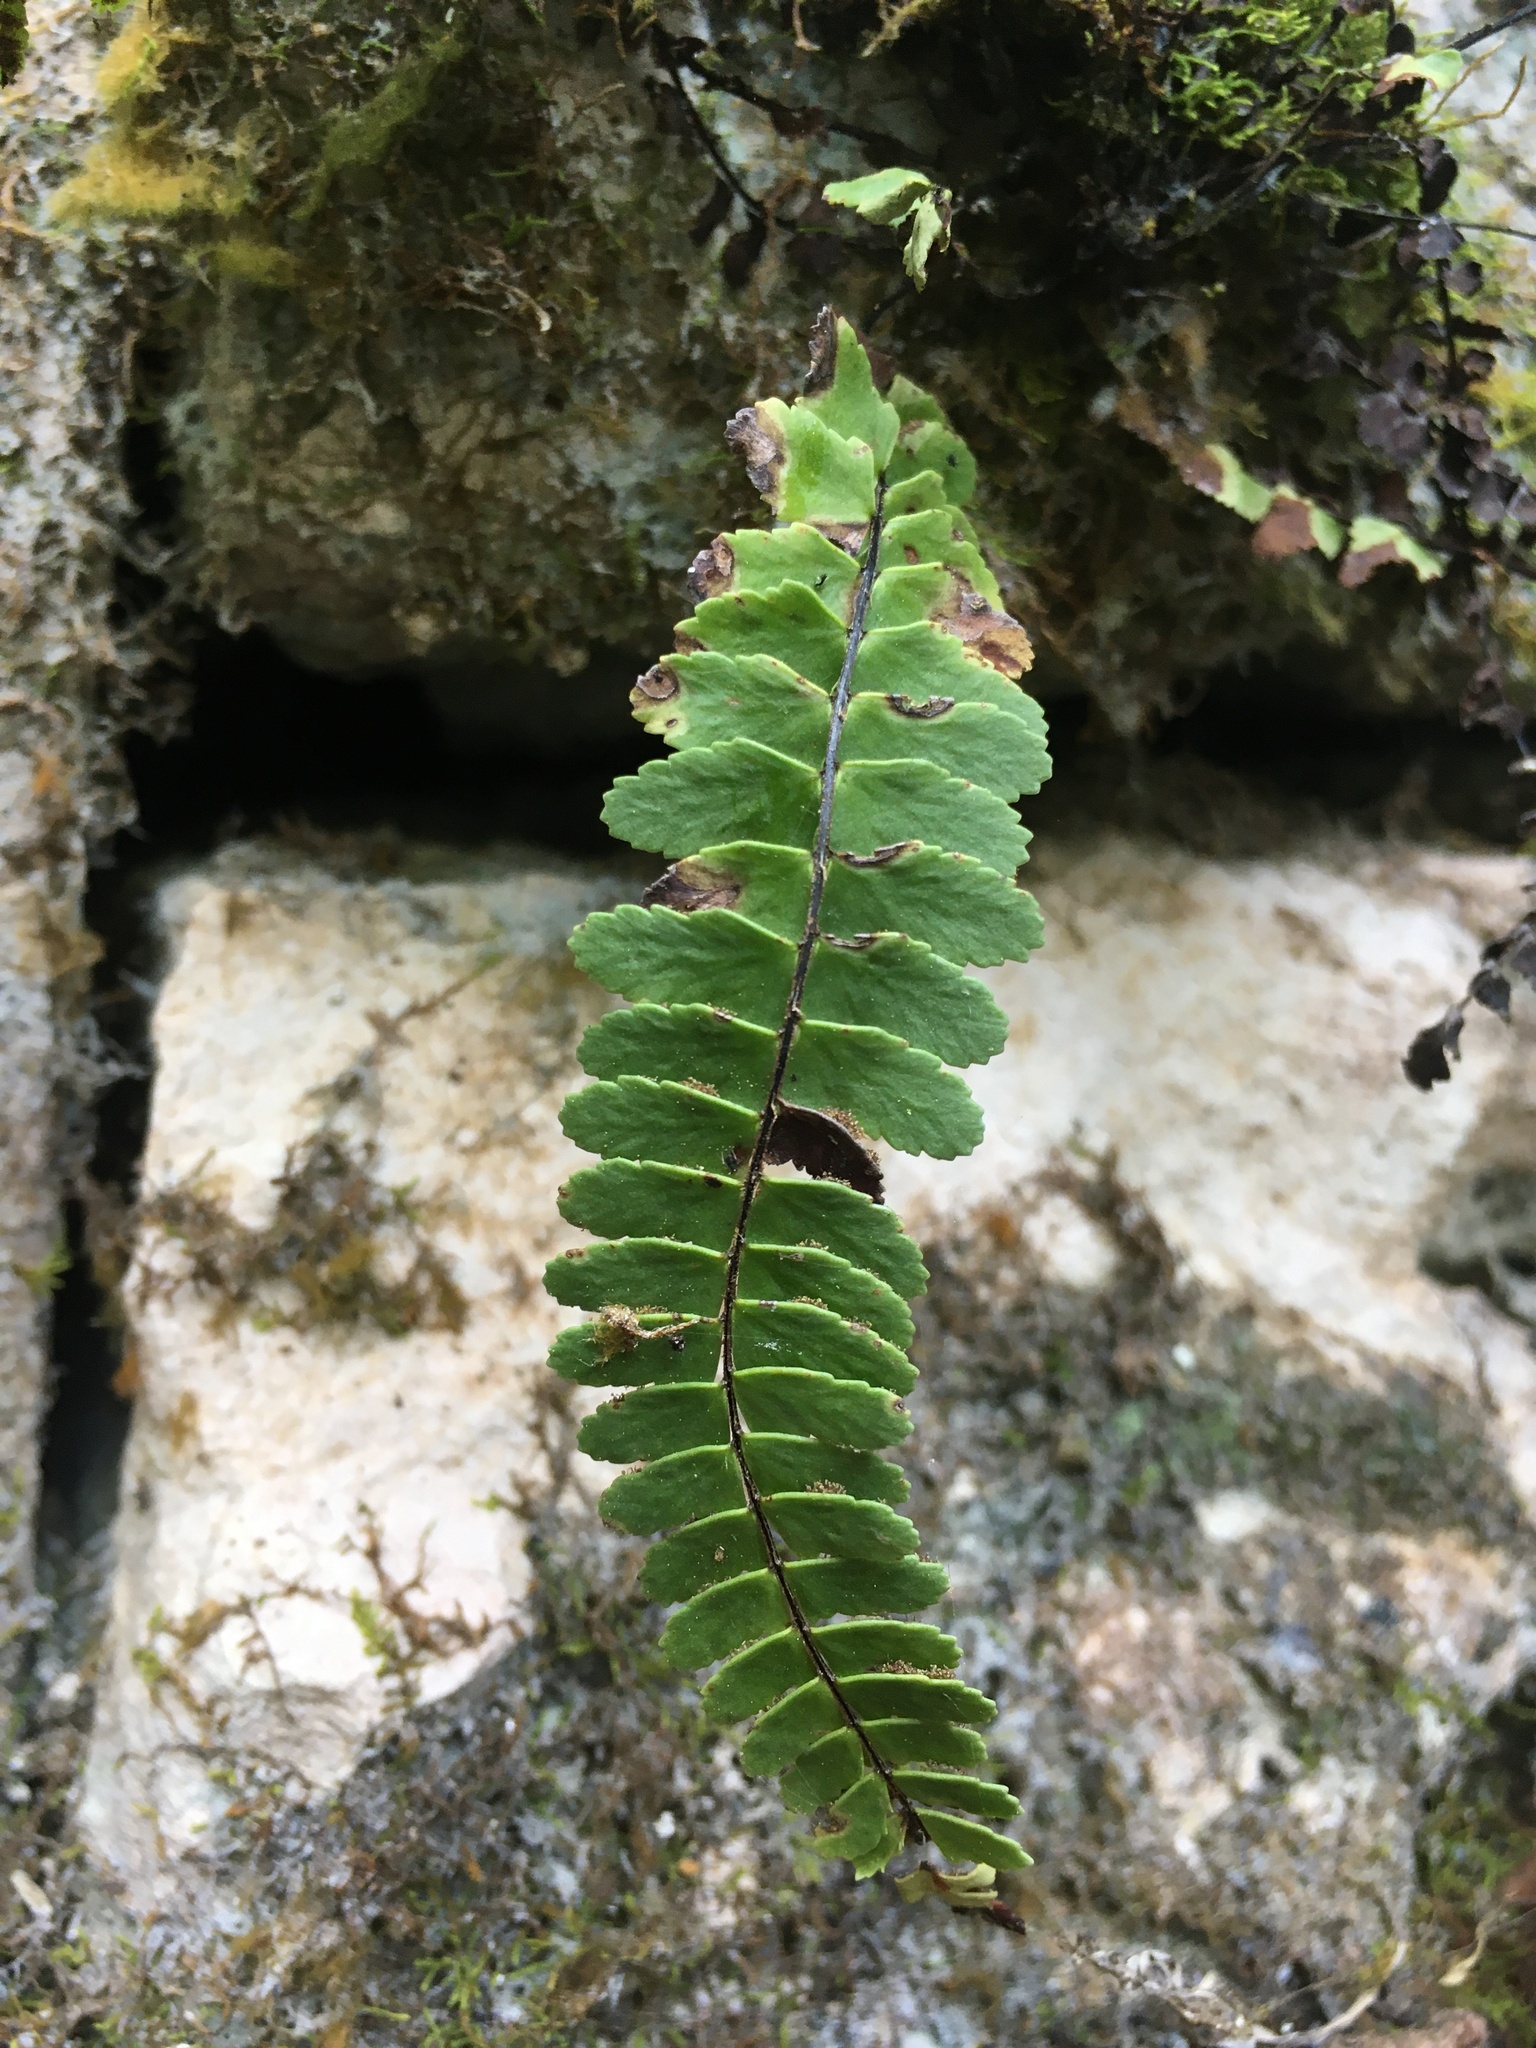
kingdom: Plantae
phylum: Tracheophyta
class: Polypodiopsida
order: Polypodiales
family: Aspleniaceae
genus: Asplenium
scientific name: Asplenium resiliens
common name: Blackstem spleenwort
